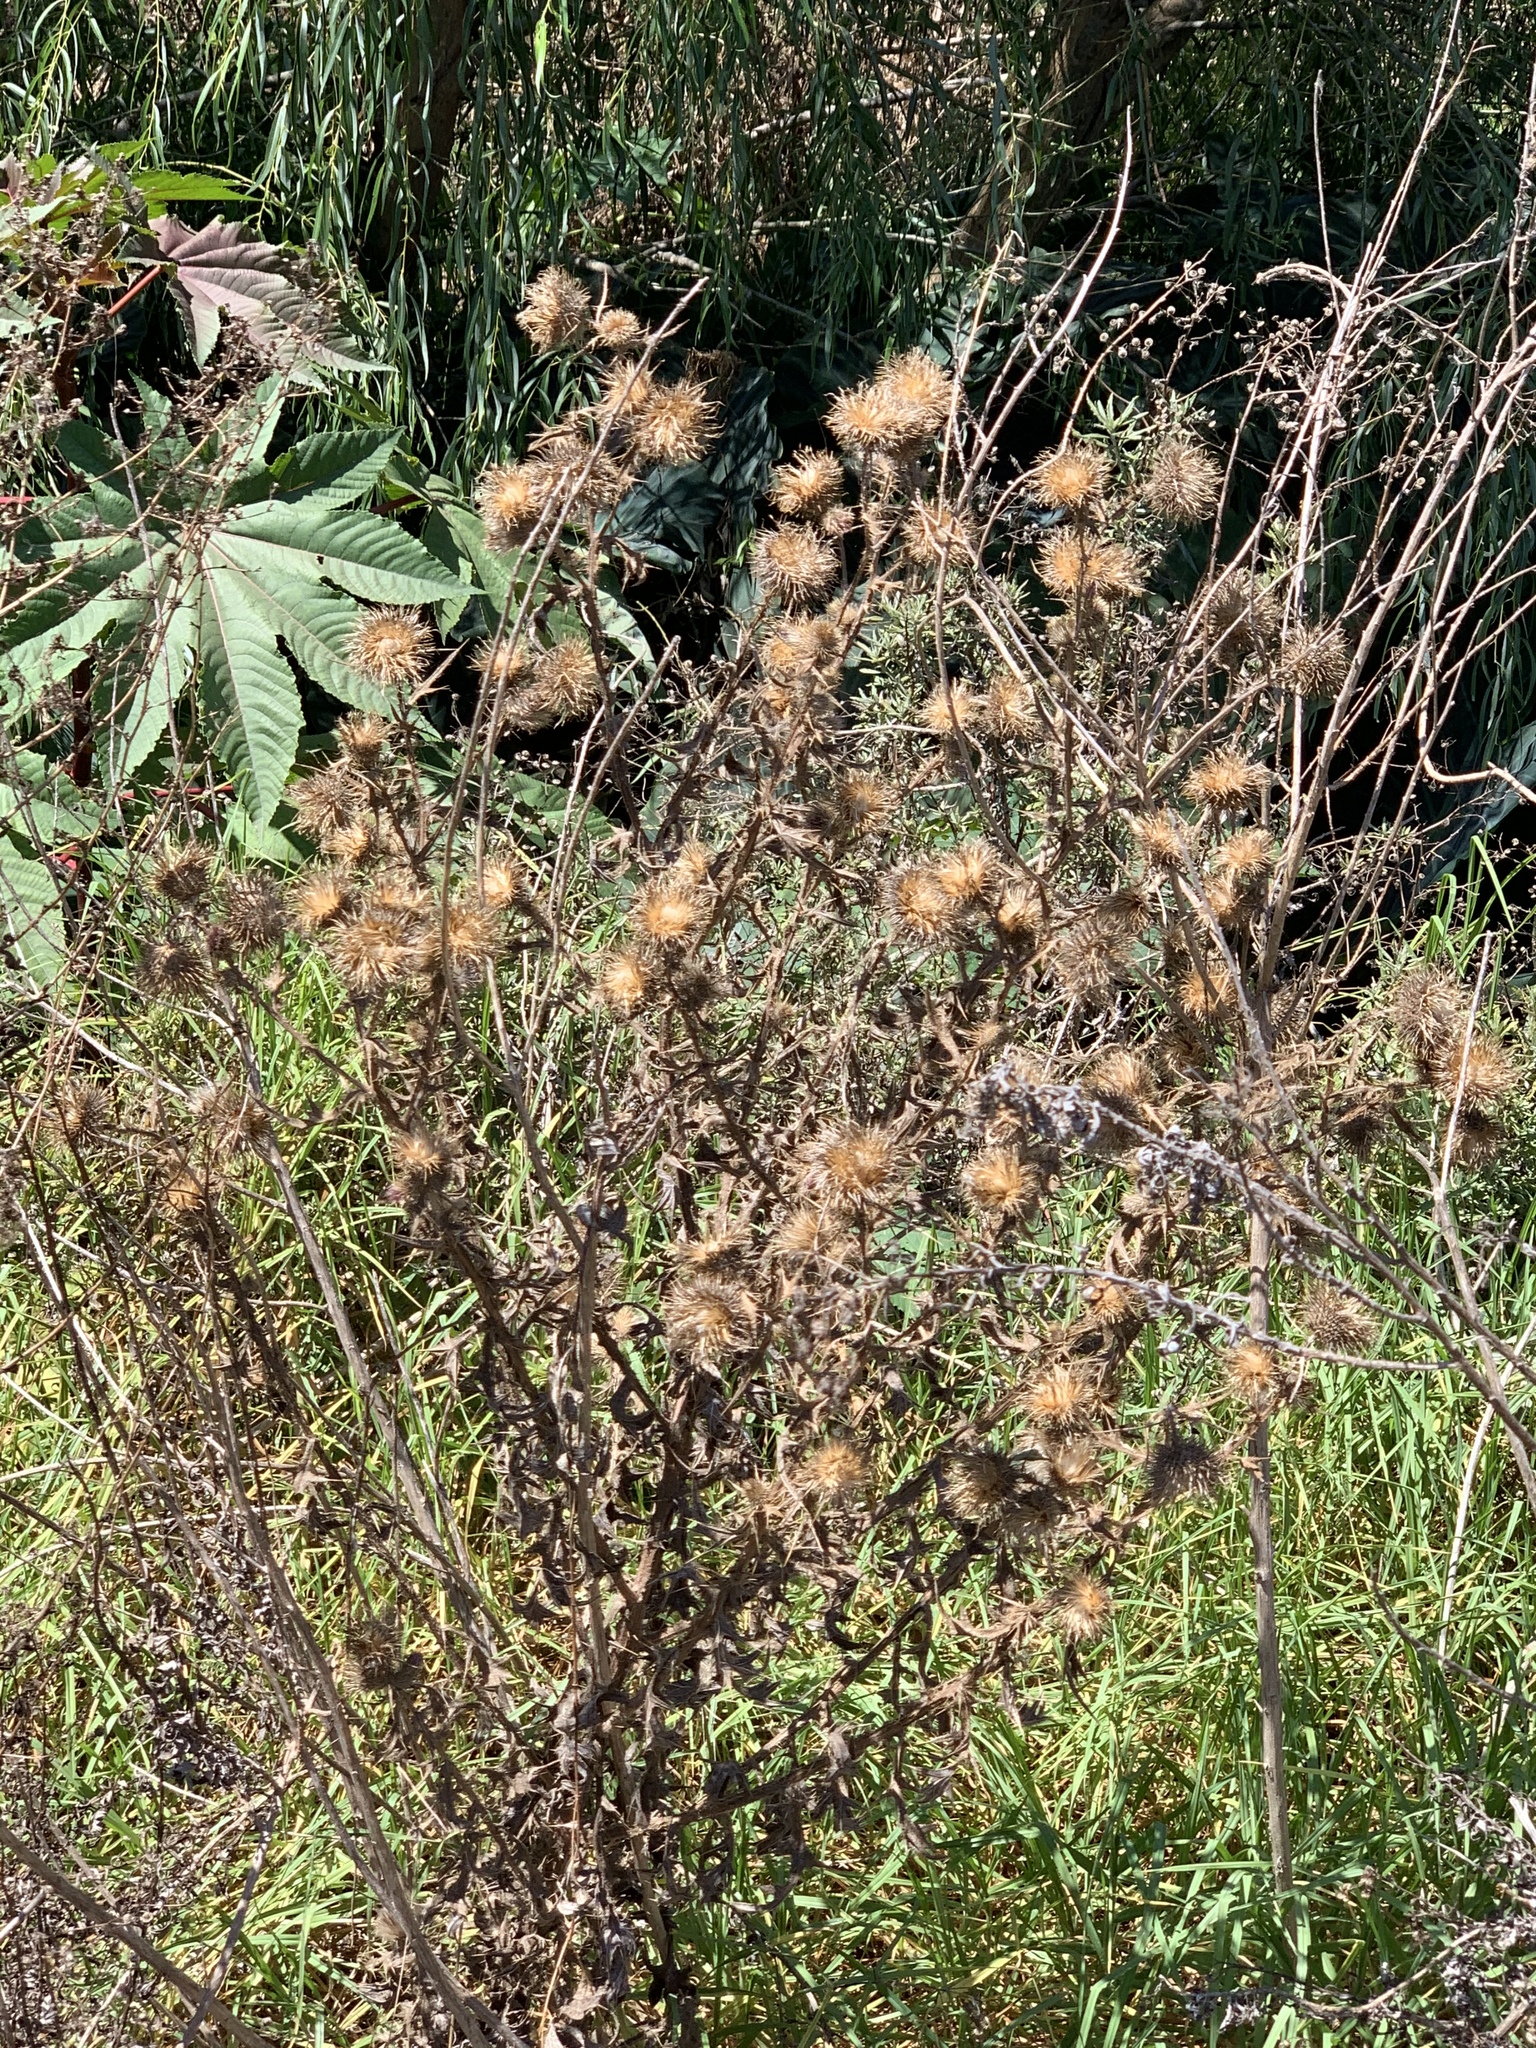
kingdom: Plantae
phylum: Tracheophyta
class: Magnoliopsida
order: Asterales
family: Asteraceae
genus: Cirsium
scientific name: Cirsium vulgare
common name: Bull thistle
